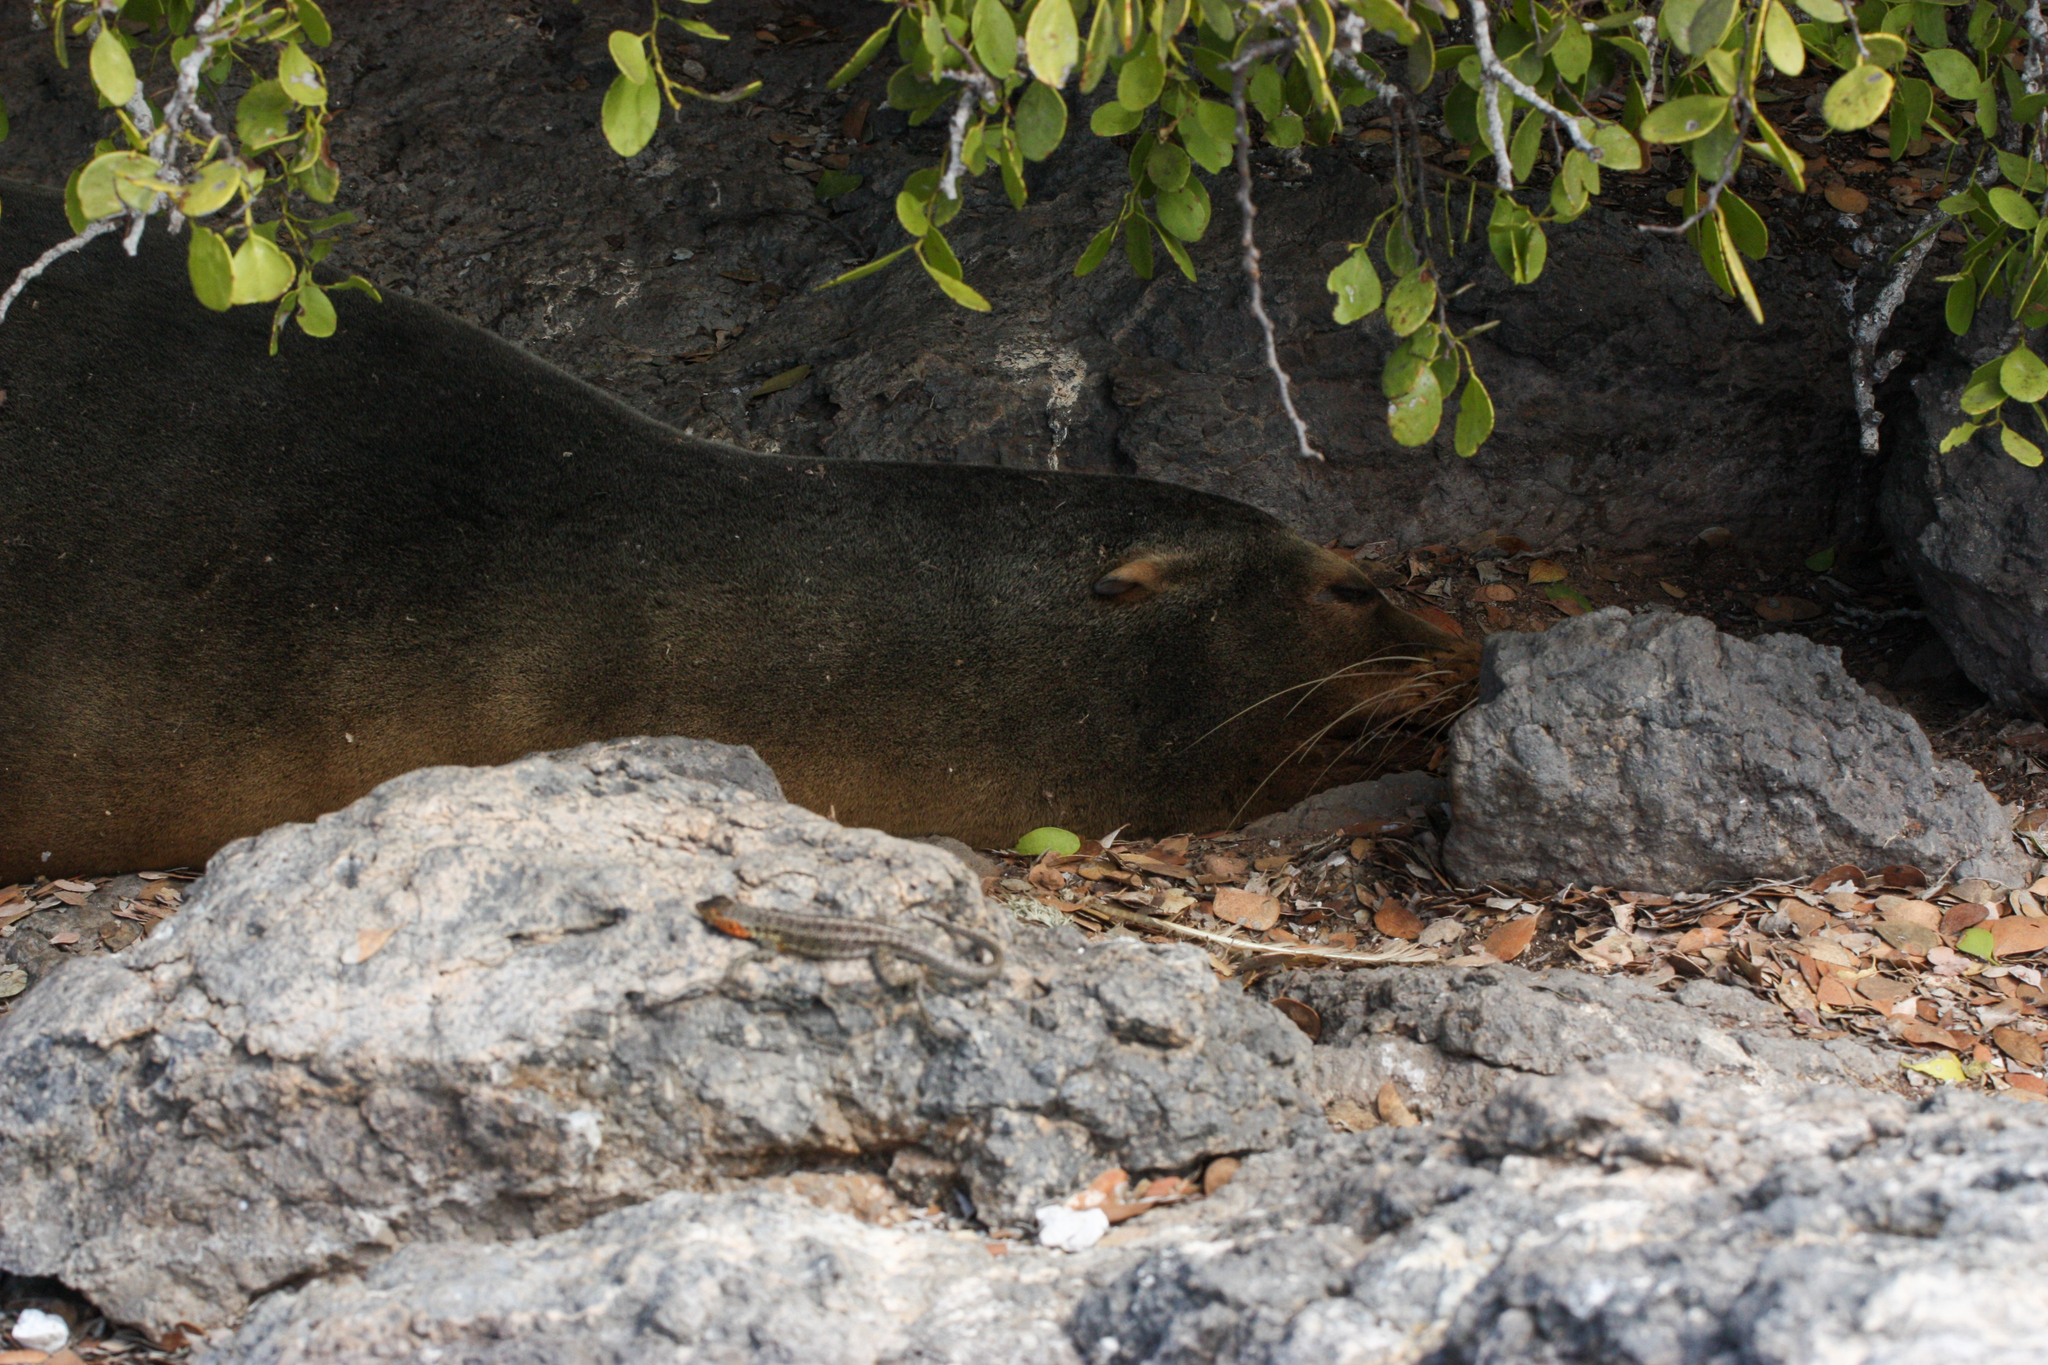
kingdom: Animalia
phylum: Chordata
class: Mammalia
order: Carnivora
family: Otariidae
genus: Zalophus
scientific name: Zalophus wollebaeki
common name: Galapagos sea lion
